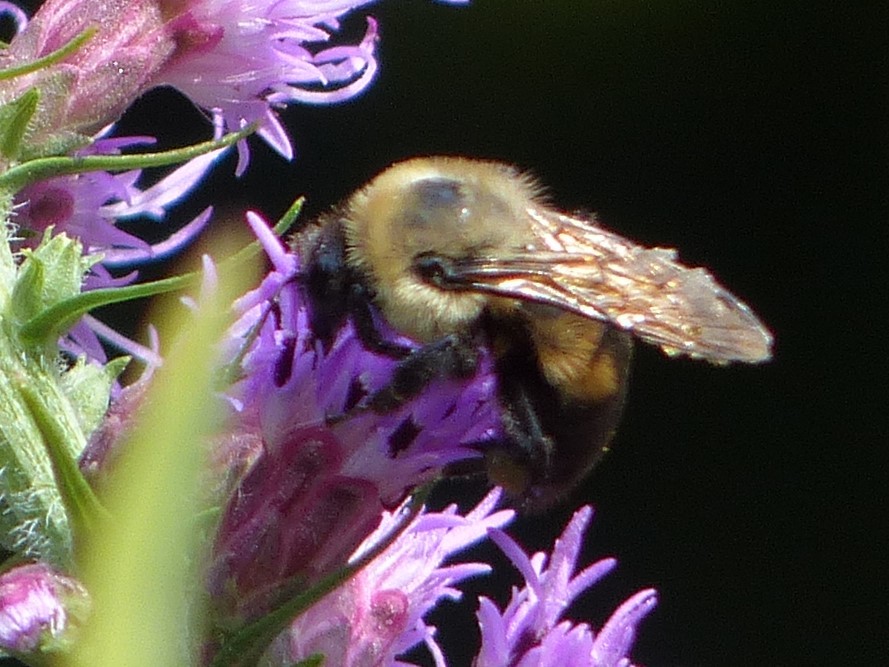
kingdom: Animalia
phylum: Arthropoda
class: Insecta
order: Hymenoptera
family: Apidae
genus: Bombus
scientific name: Bombus griseocollis
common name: Brown-belted bumble bee
